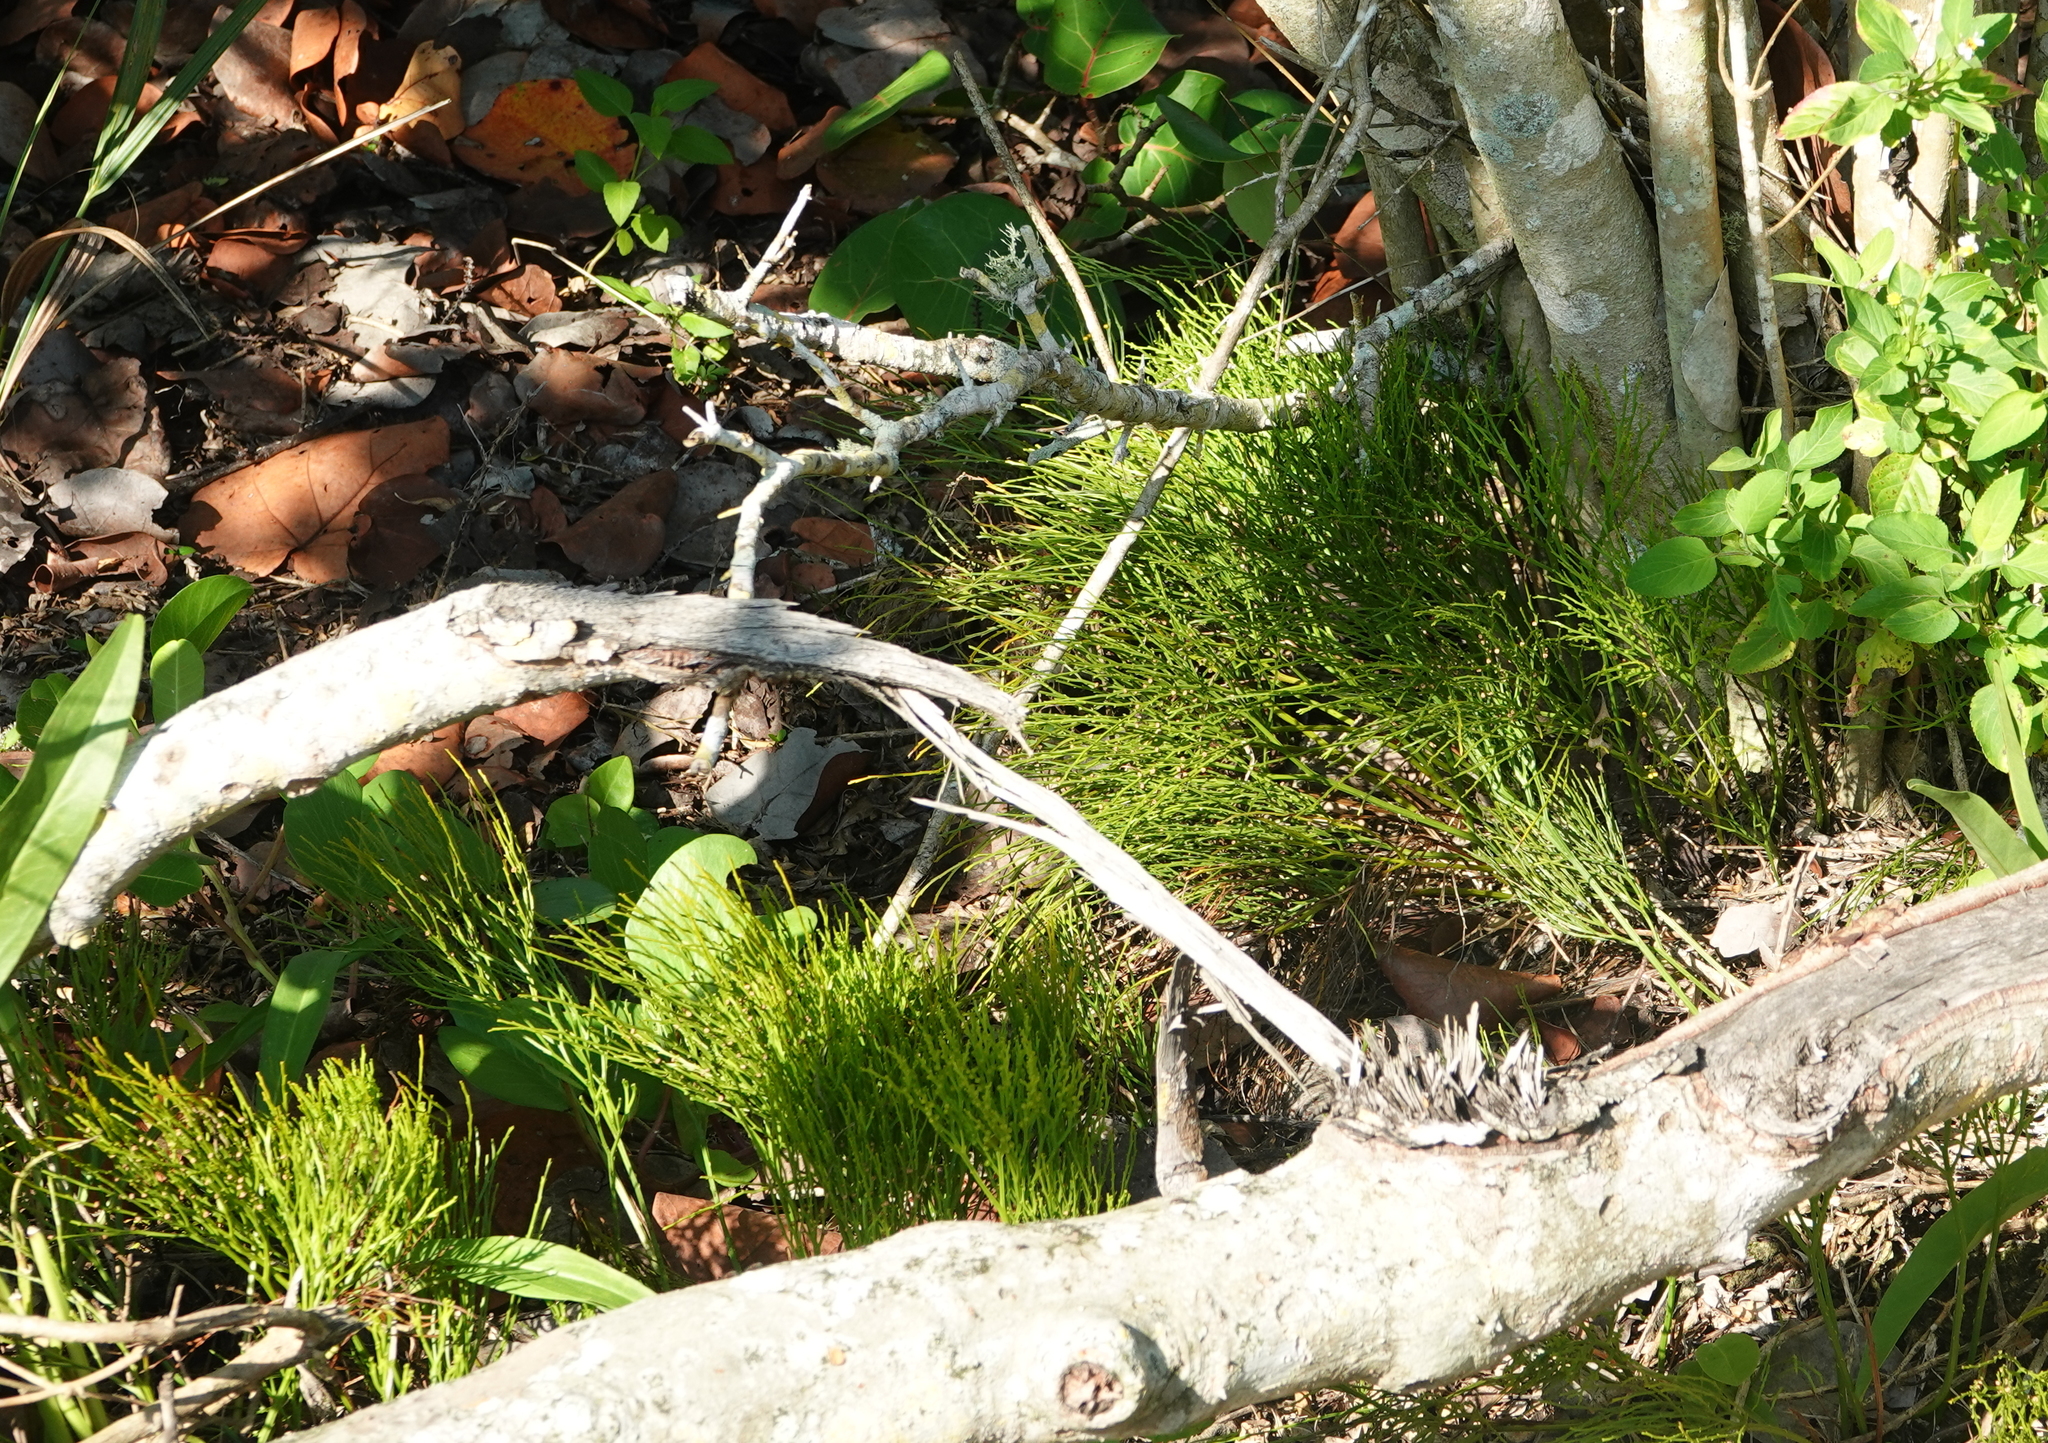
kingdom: Plantae
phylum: Tracheophyta
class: Polypodiopsida
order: Psilotales
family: Psilotaceae
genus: Psilotum
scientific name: Psilotum nudum
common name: Skeleton fork fern
